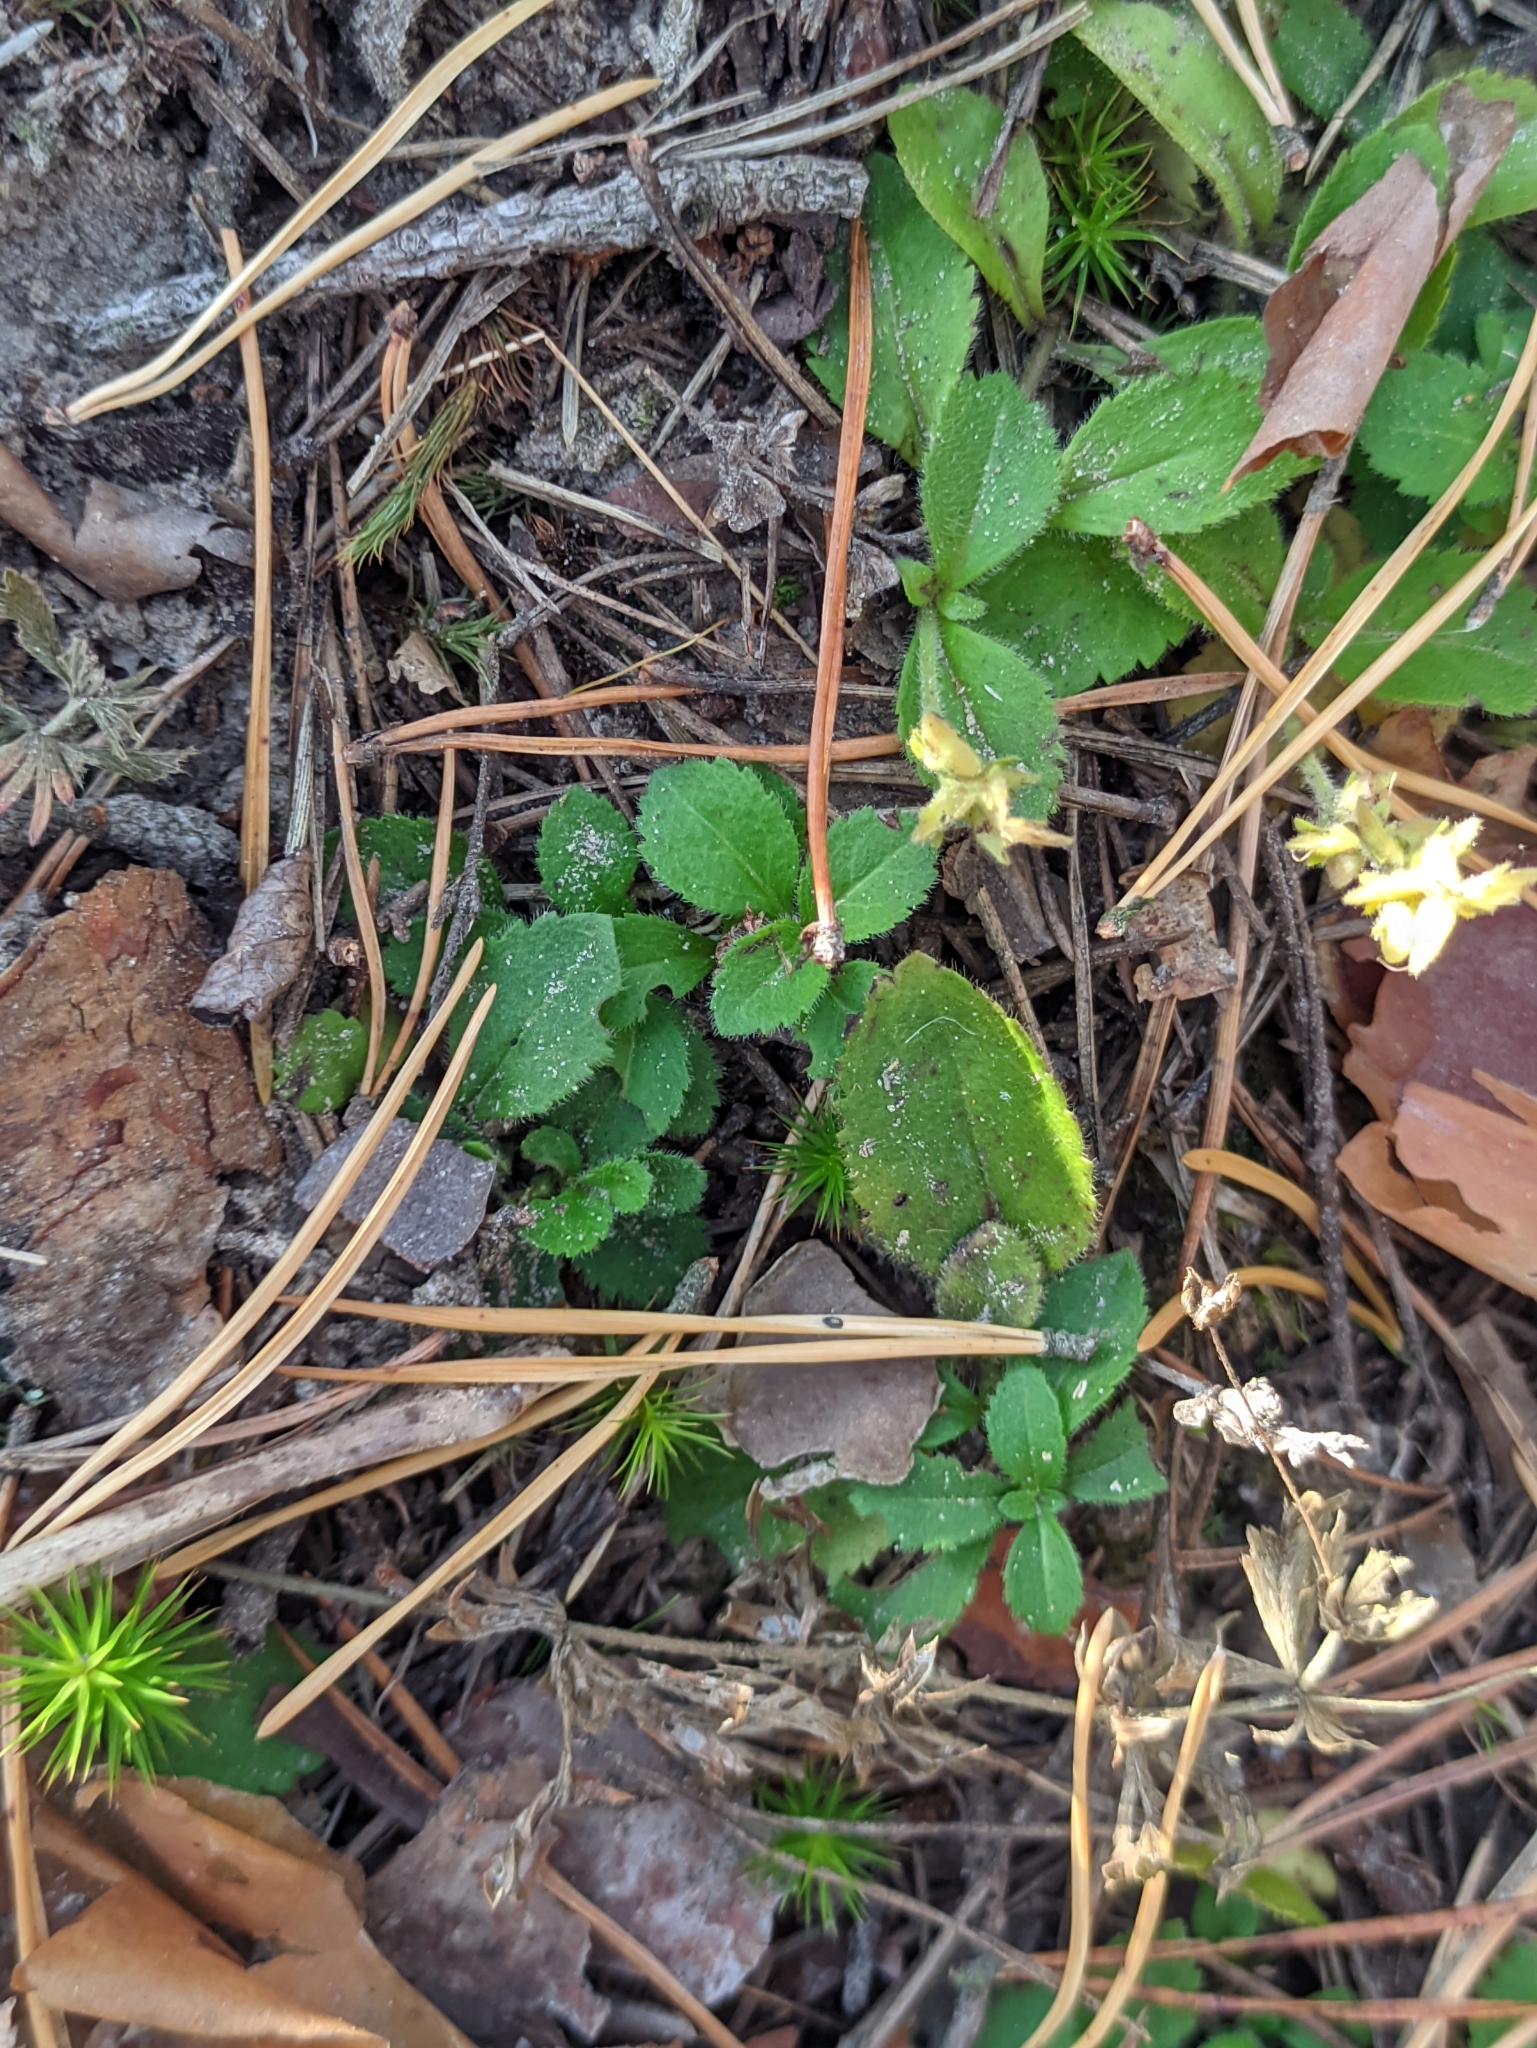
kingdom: Plantae
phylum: Tracheophyta
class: Magnoliopsida
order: Lamiales
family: Plantaginaceae
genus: Veronica
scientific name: Veronica officinalis
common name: Common speedwell
